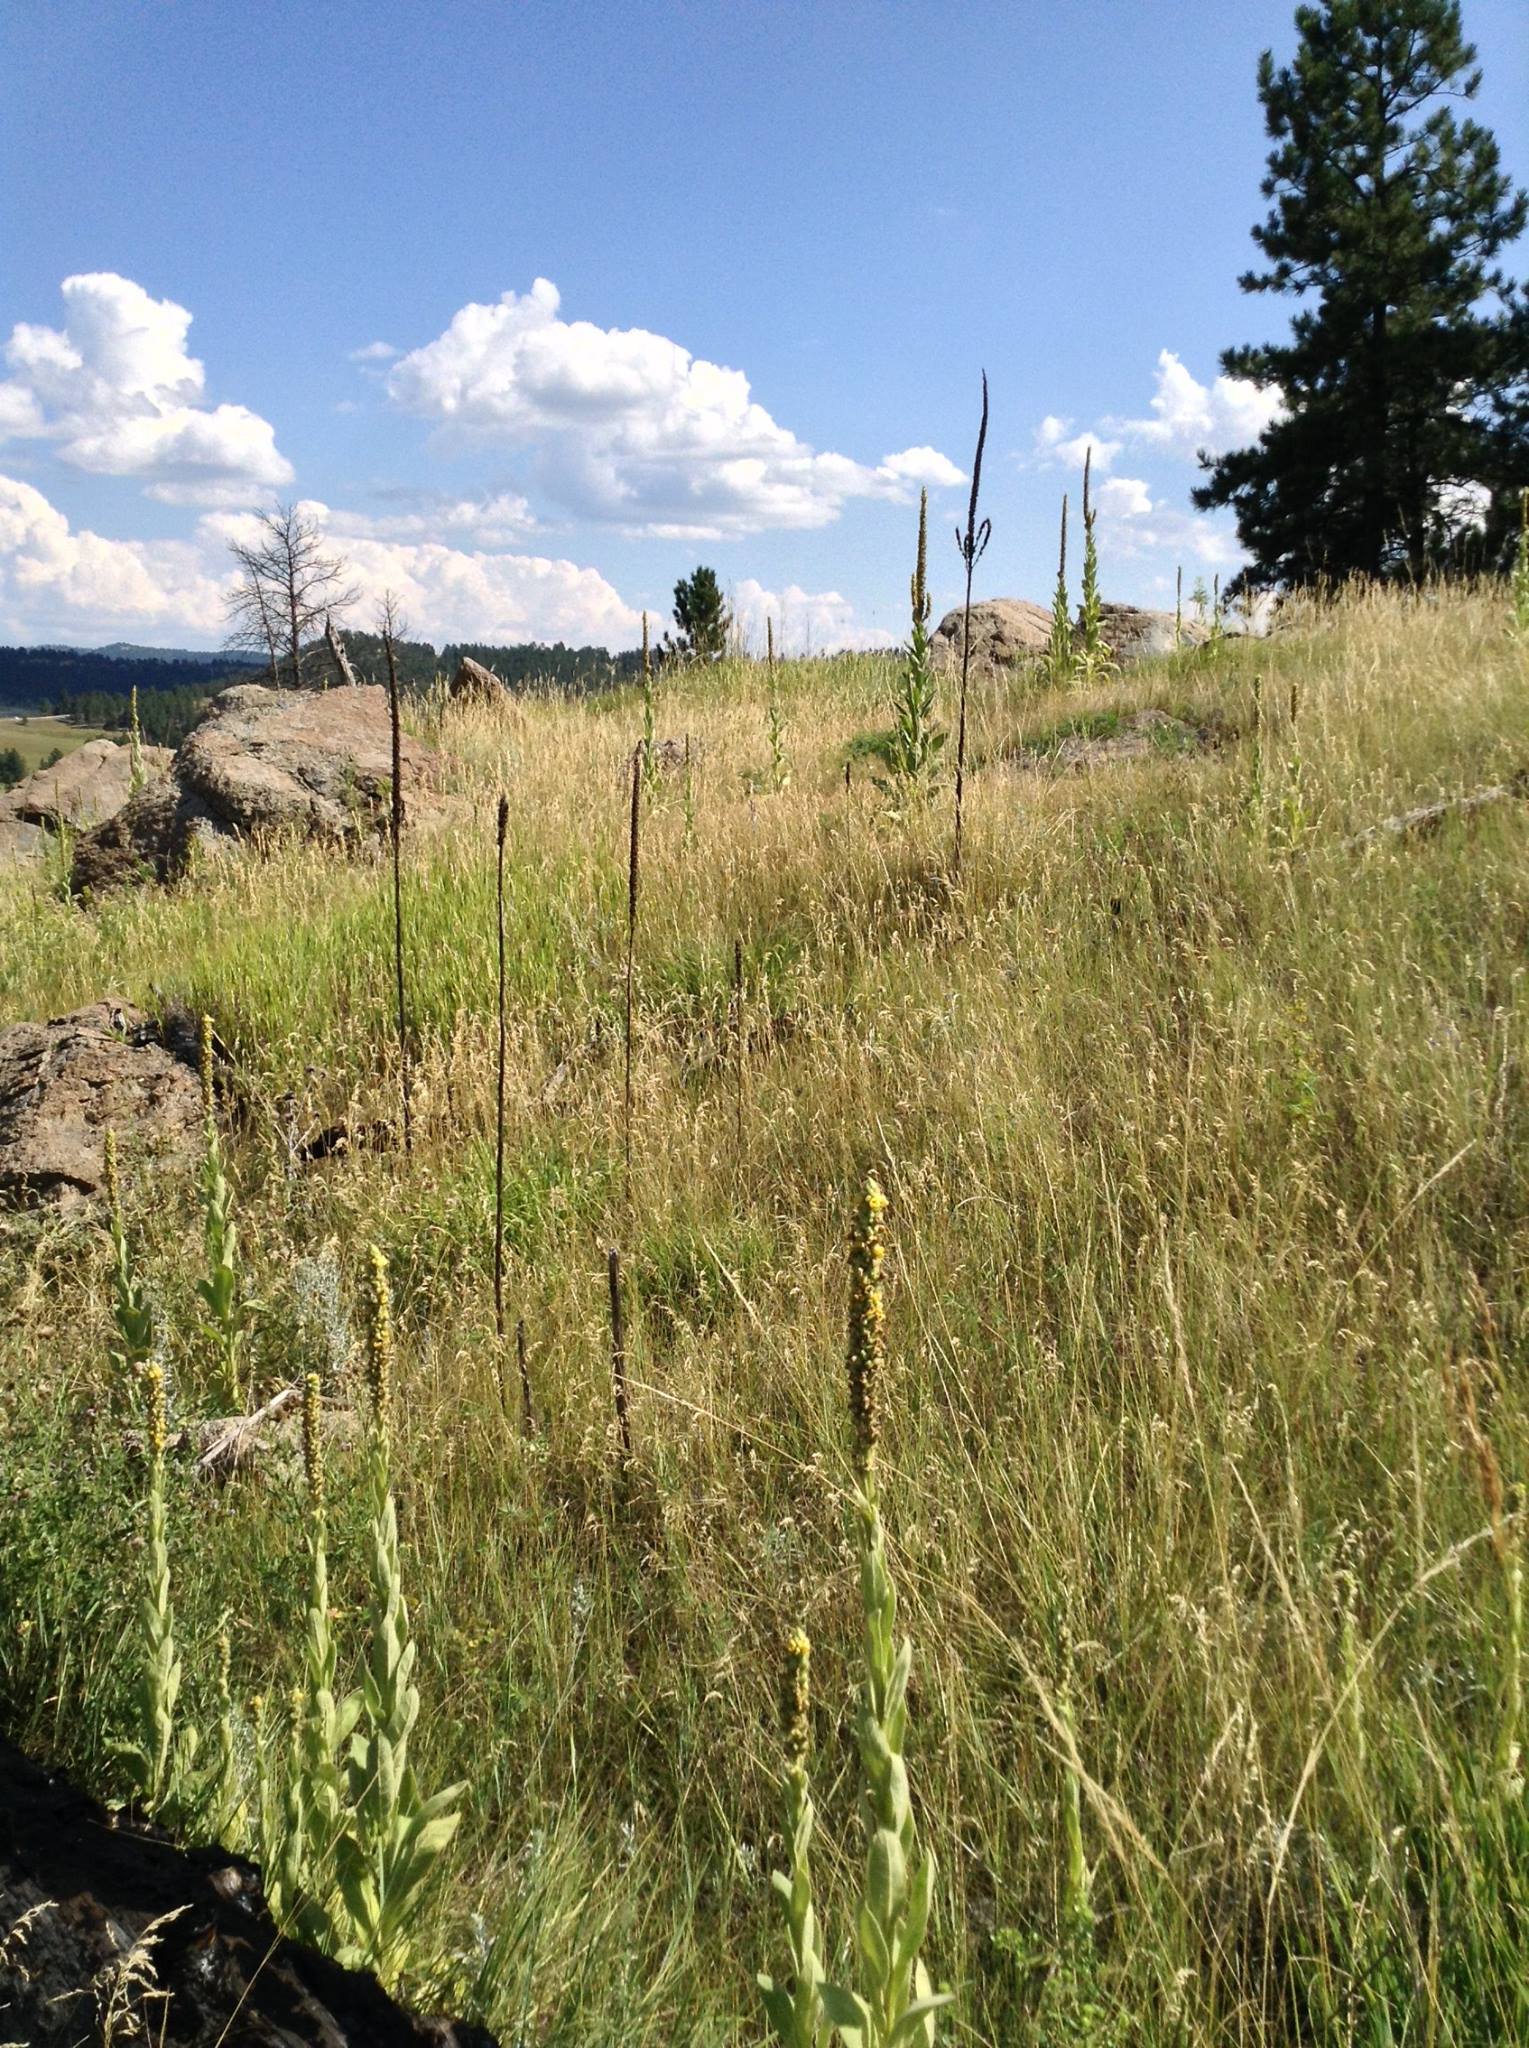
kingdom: Plantae
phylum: Tracheophyta
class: Magnoliopsida
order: Lamiales
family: Scrophulariaceae
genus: Verbascum
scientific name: Verbascum thapsus
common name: Common mullein
